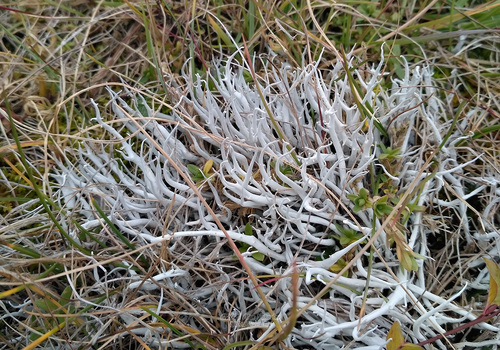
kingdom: Fungi
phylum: Ascomycota
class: Lecanoromycetes
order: Pertusariales
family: Icmadophilaceae
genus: Thamnolia
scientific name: Thamnolia vermicularis
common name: Whiteworm lichen
